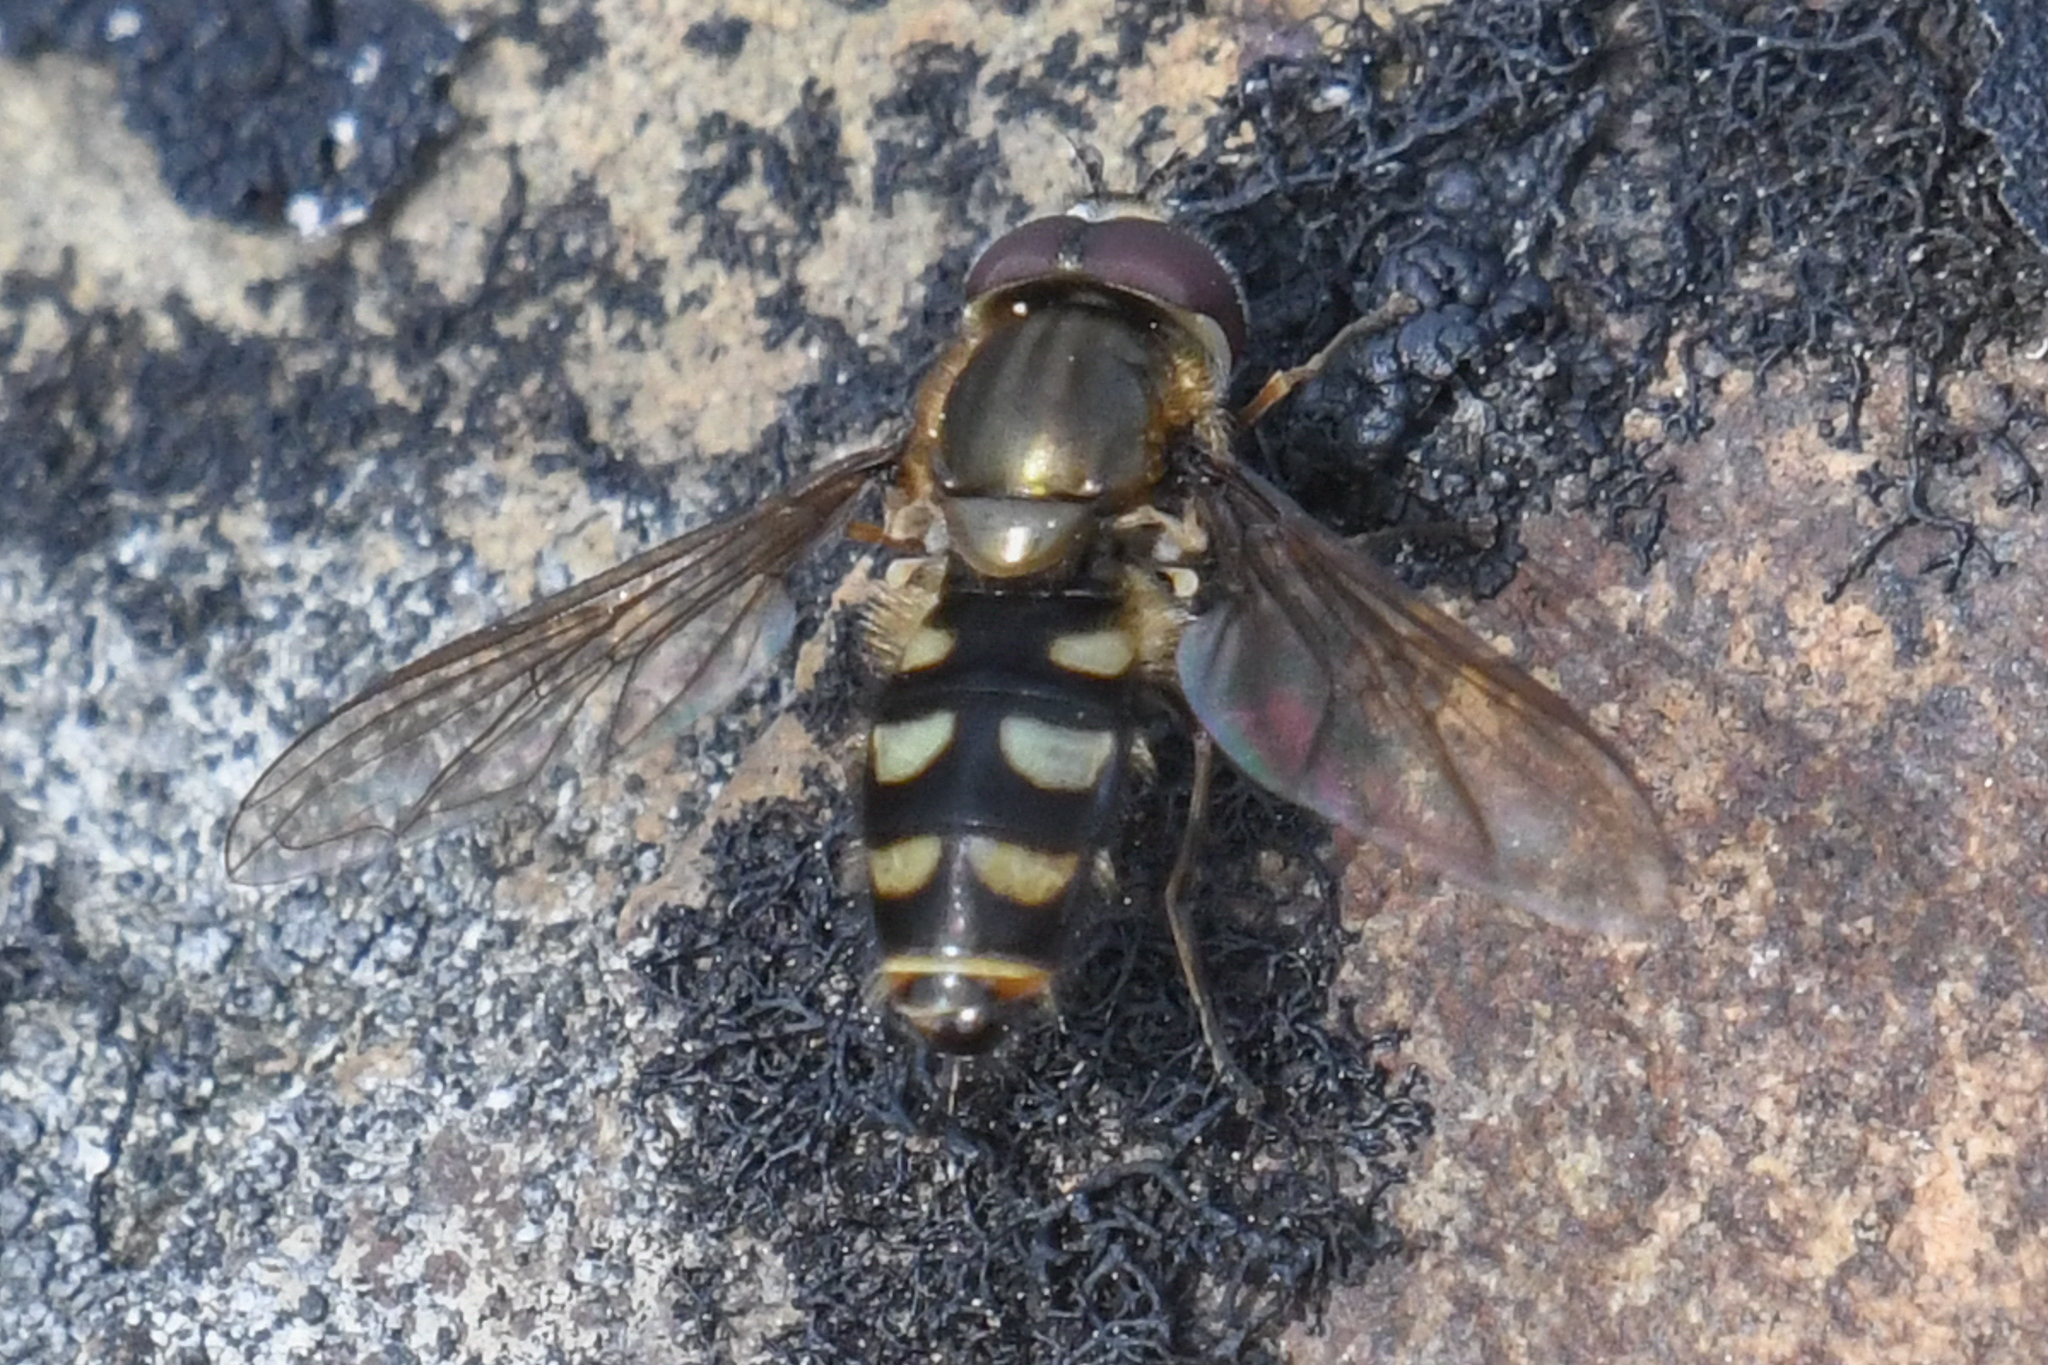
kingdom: Animalia
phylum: Arthropoda
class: Insecta
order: Diptera
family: Syrphidae
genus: Parasyrphus
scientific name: Parasyrphus tarsatus
